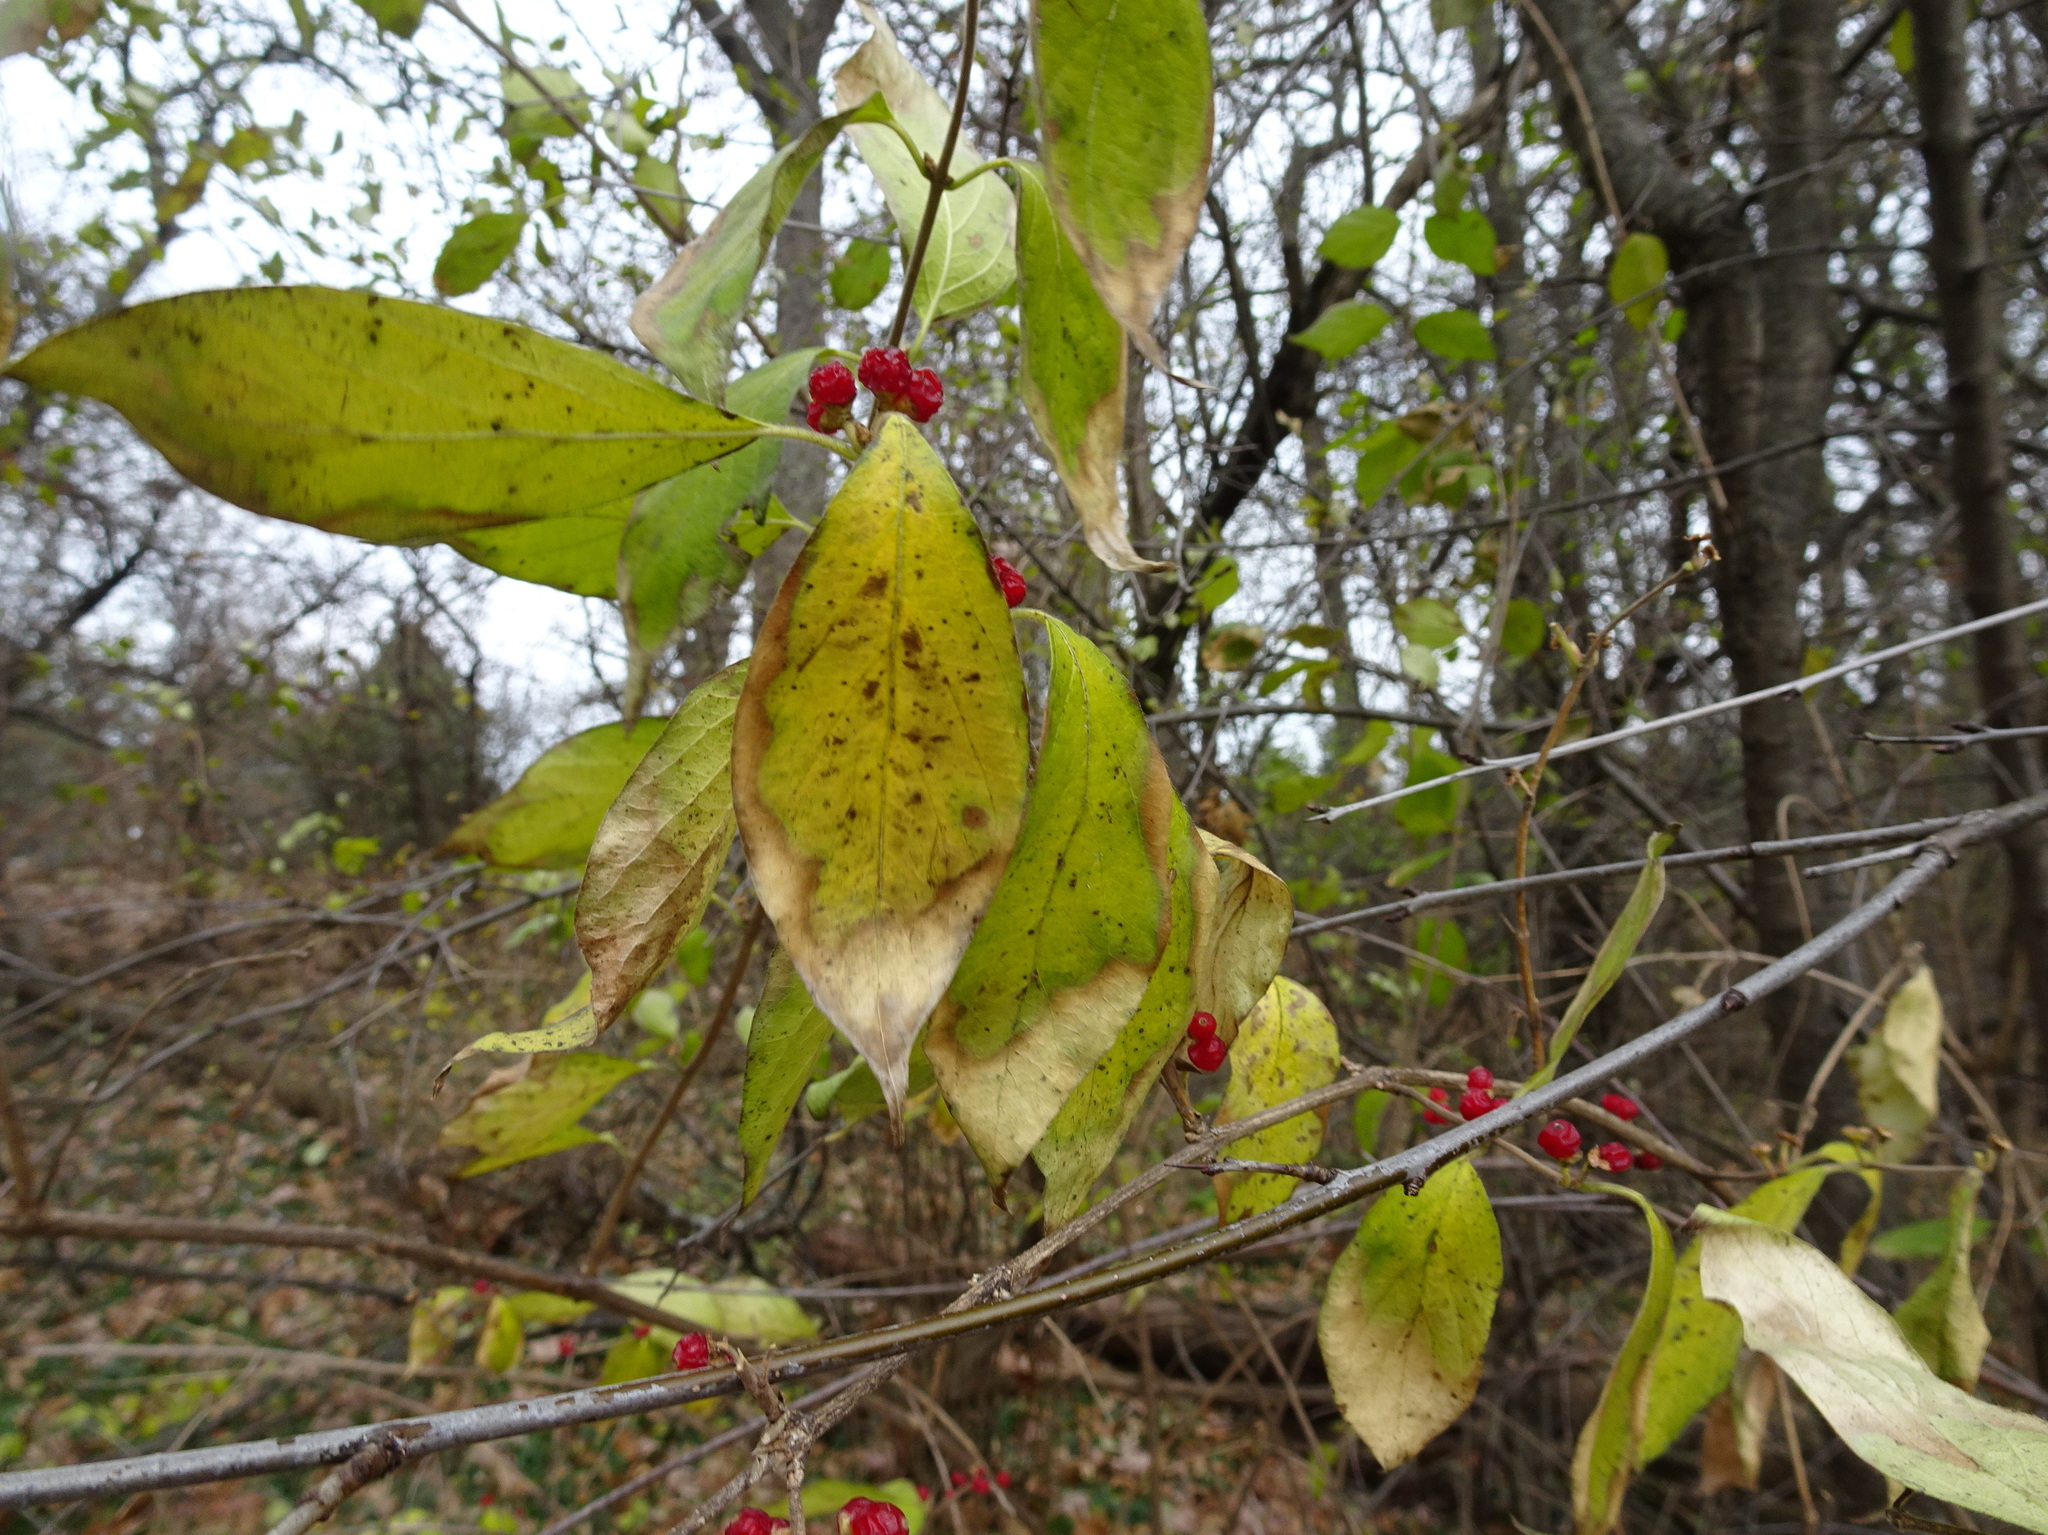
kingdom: Plantae
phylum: Tracheophyta
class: Magnoliopsida
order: Dipsacales
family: Caprifoliaceae
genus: Lonicera
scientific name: Lonicera maackii
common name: Amur honeysuckle
